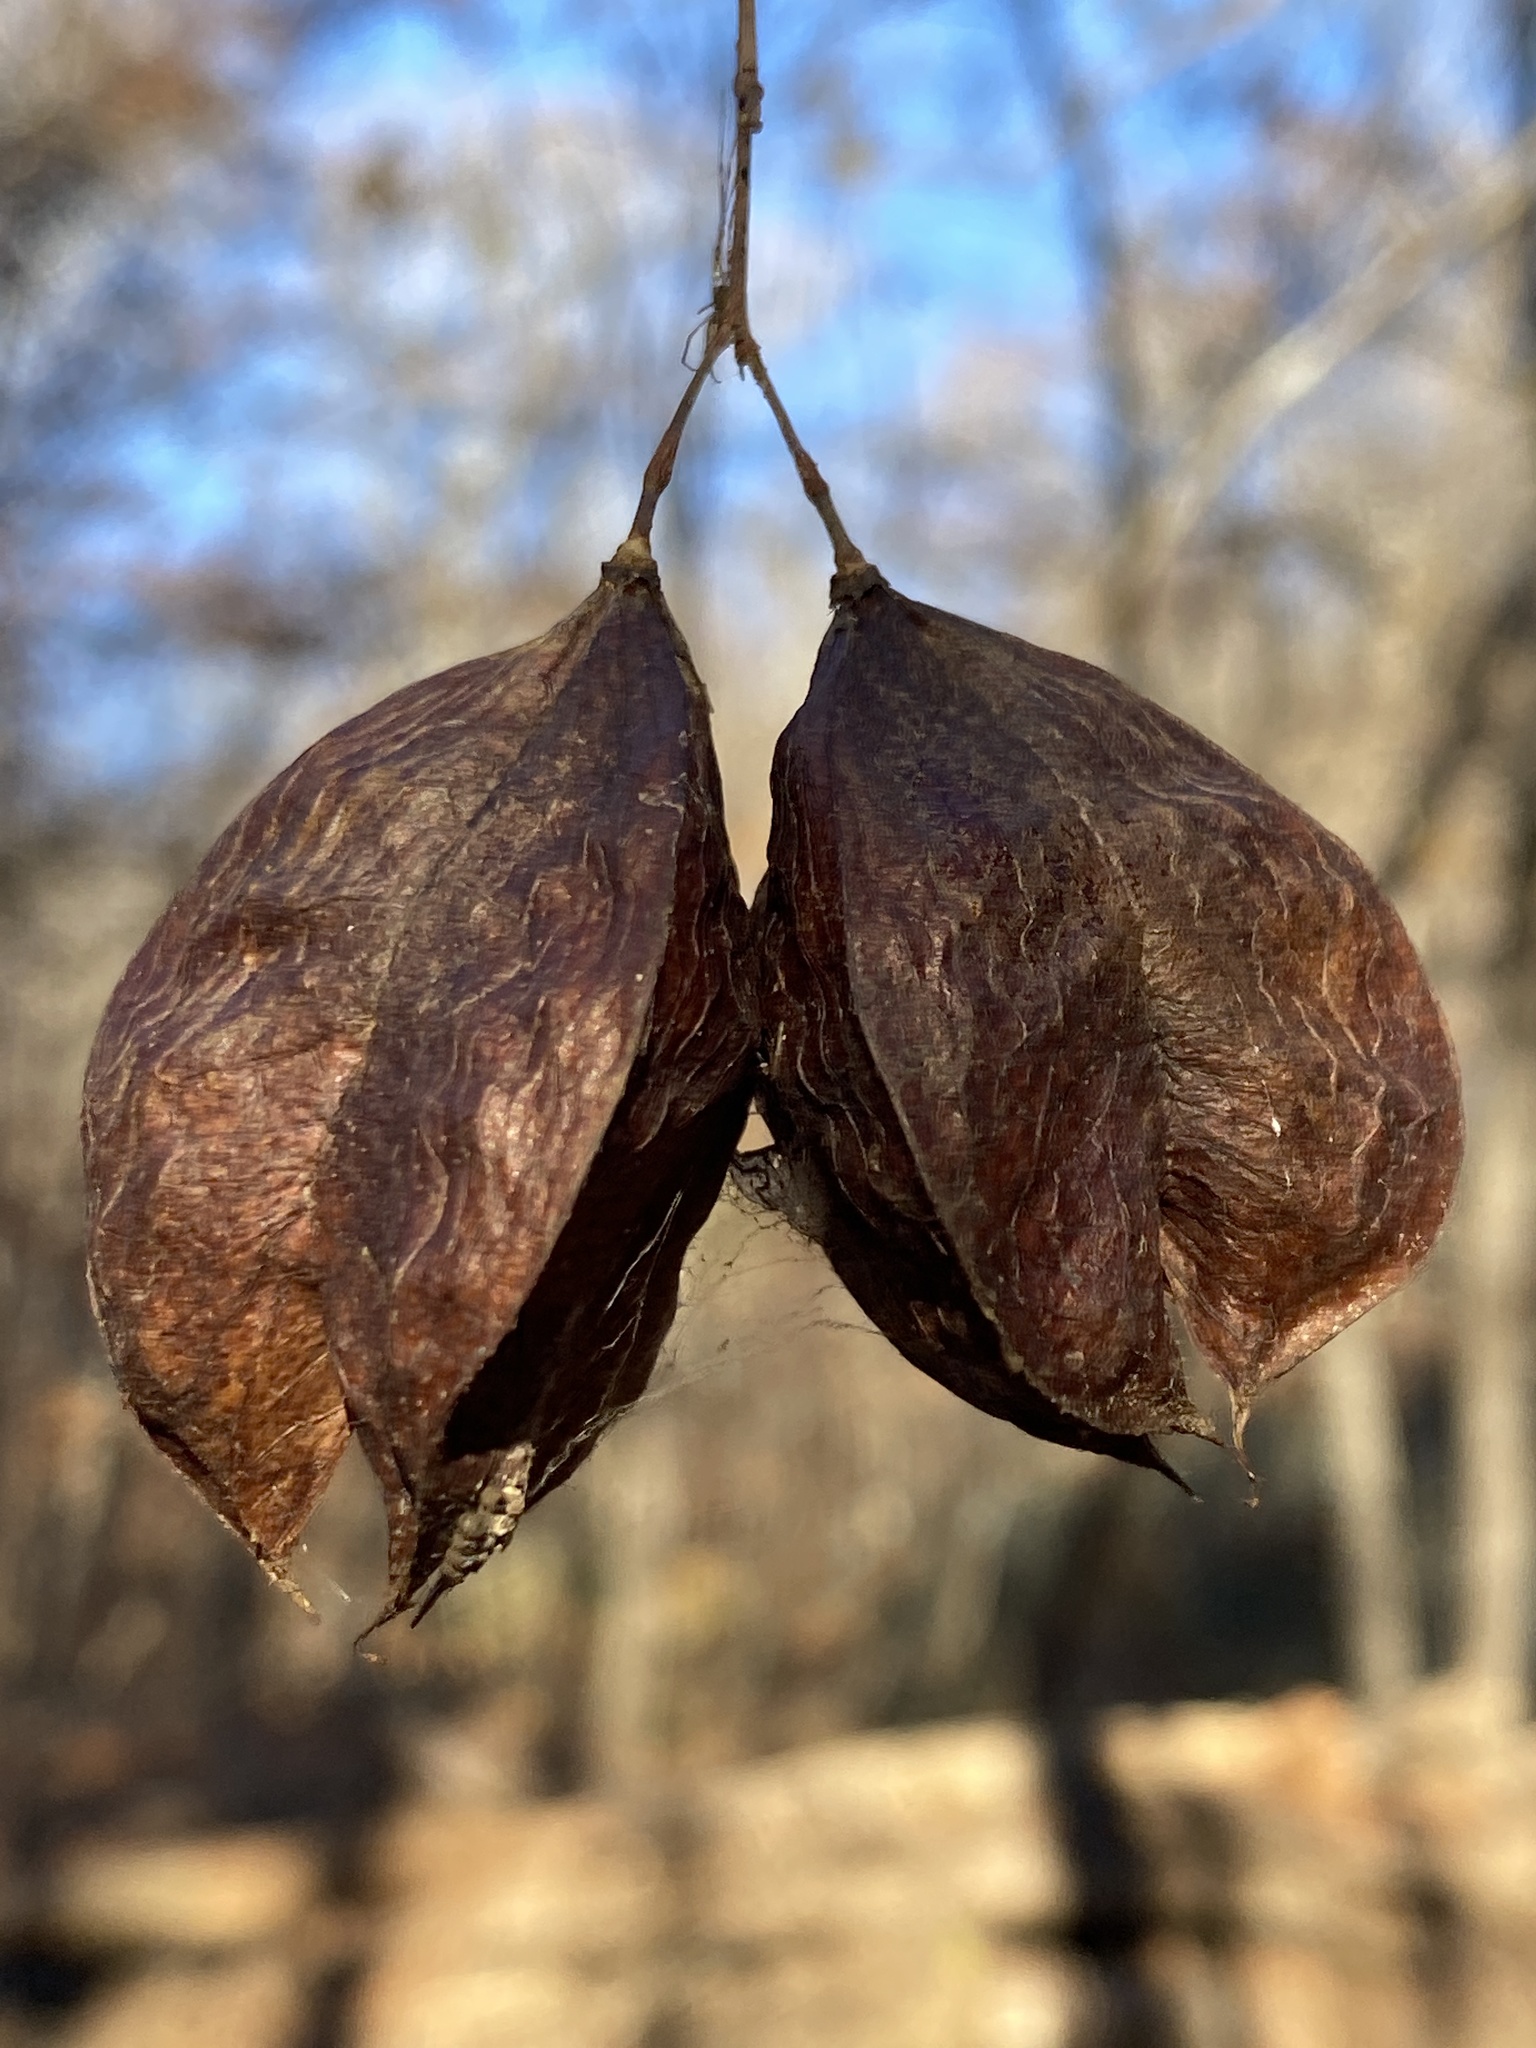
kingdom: Plantae
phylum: Tracheophyta
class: Magnoliopsida
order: Crossosomatales
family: Staphyleaceae
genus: Staphylea
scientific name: Staphylea trifolia
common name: American bladdernut
